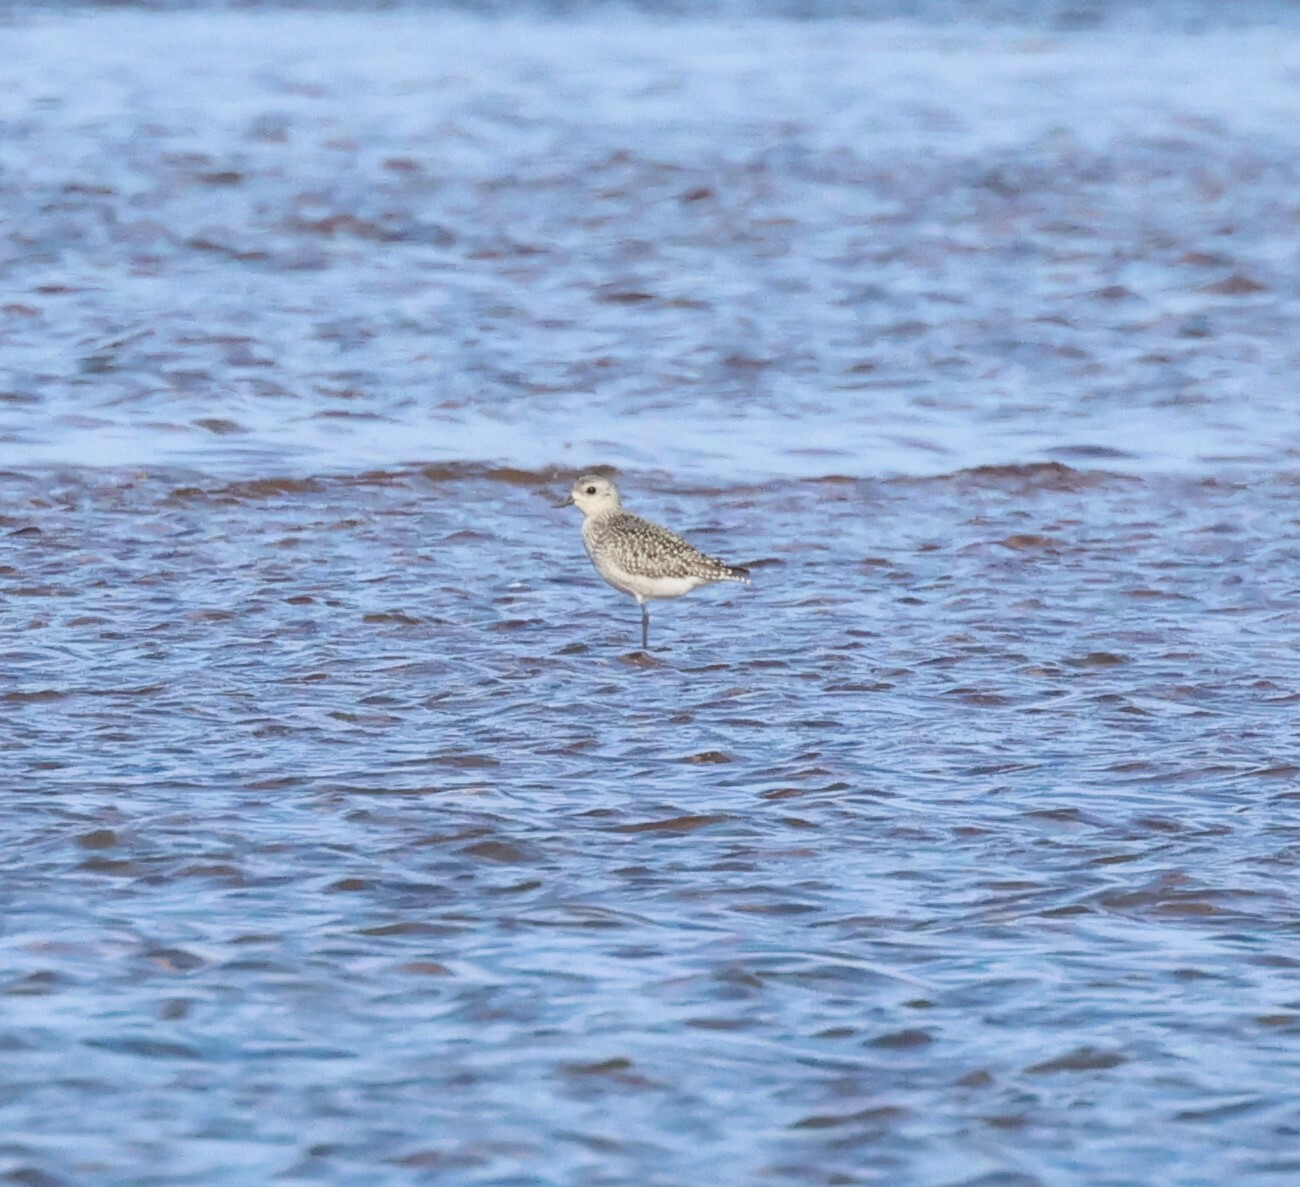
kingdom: Animalia
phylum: Chordata
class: Aves
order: Charadriiformes
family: Charadriidae
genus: Pluvialis
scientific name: Pluvialis squatarola
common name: Grey plover
